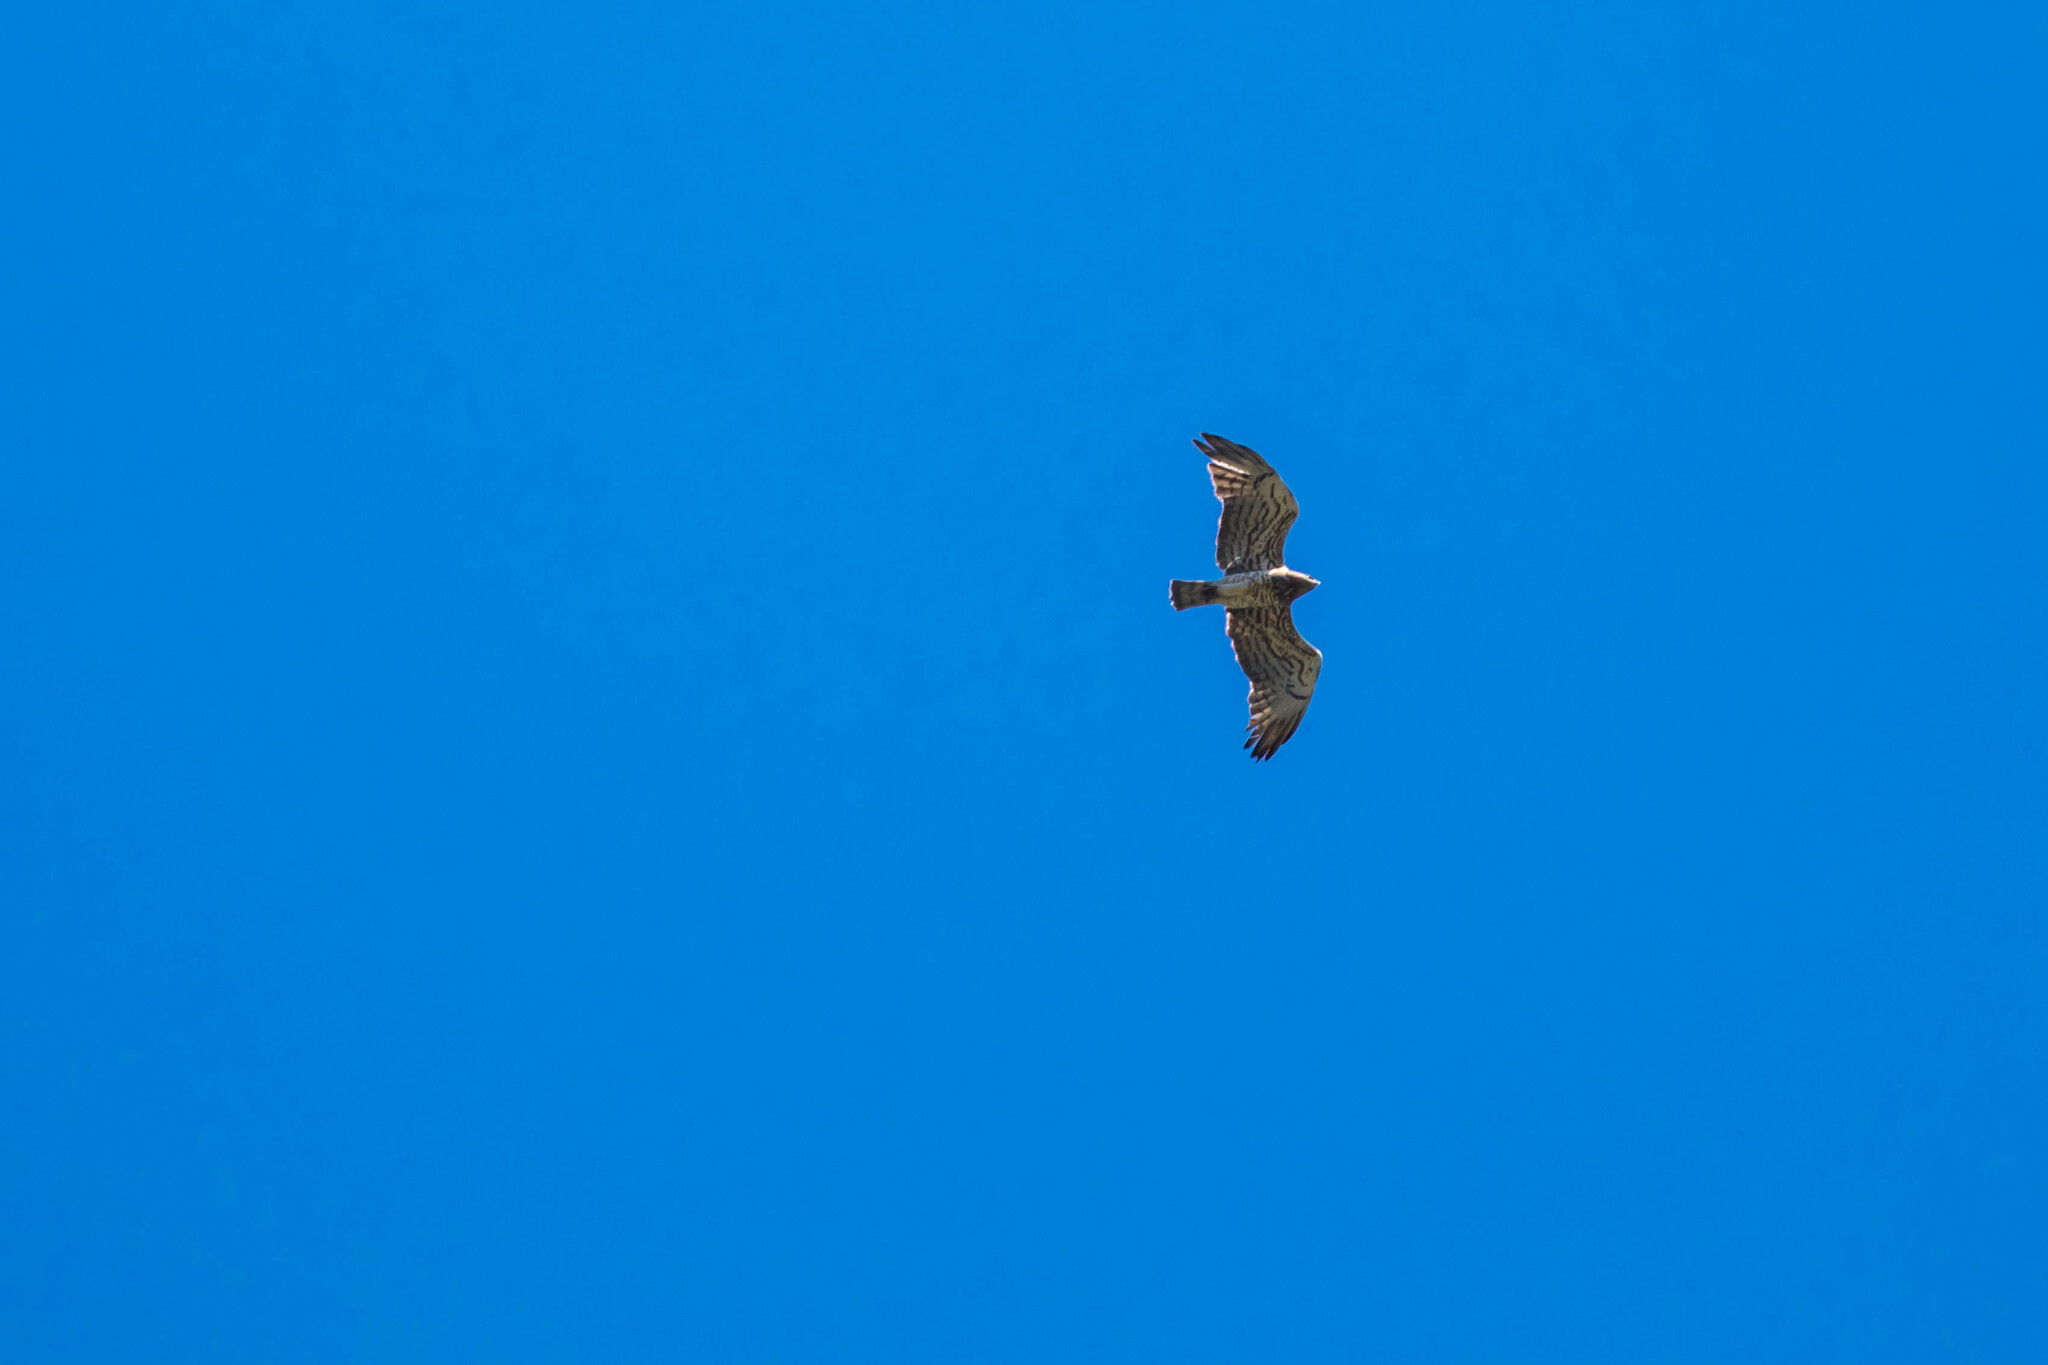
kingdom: Animalia
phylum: Chordata
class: Aves
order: Accipitriformes
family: Accipitridae
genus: Circaetus
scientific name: Circaetus gallicus
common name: Short-toed snake eagle
